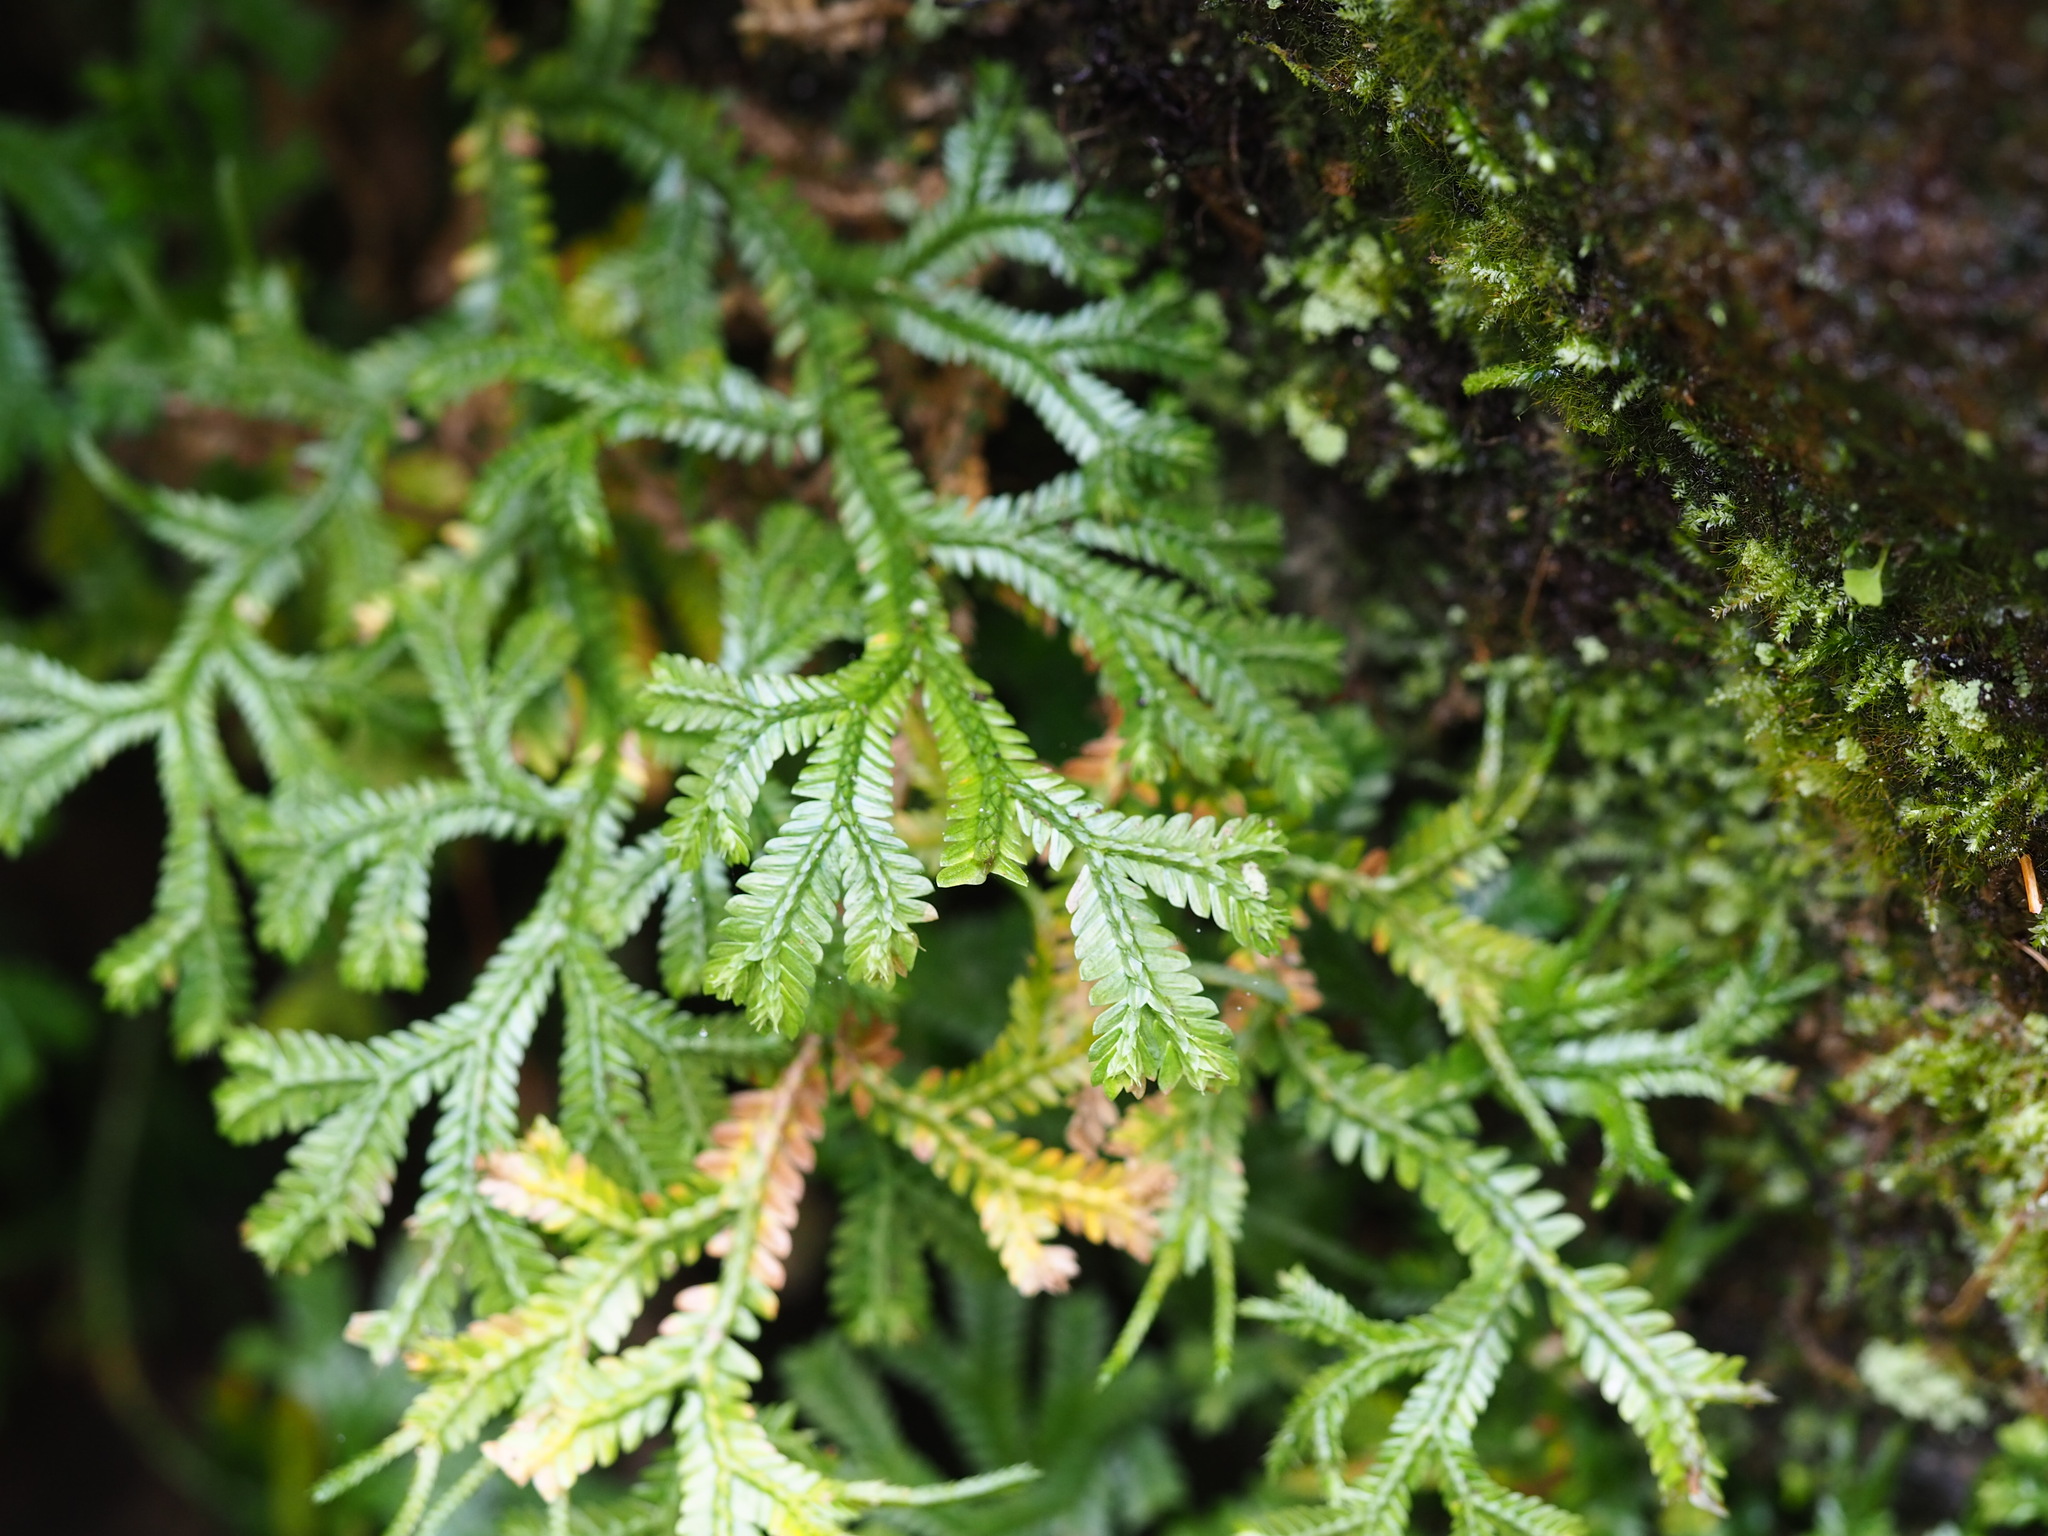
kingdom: Plantae
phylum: Tracheophyta
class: Lycopodiopsida
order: Selaginellales
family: Selaginellaceae
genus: Selaginella
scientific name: Selaginella doederleinii
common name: Greater selaginella
